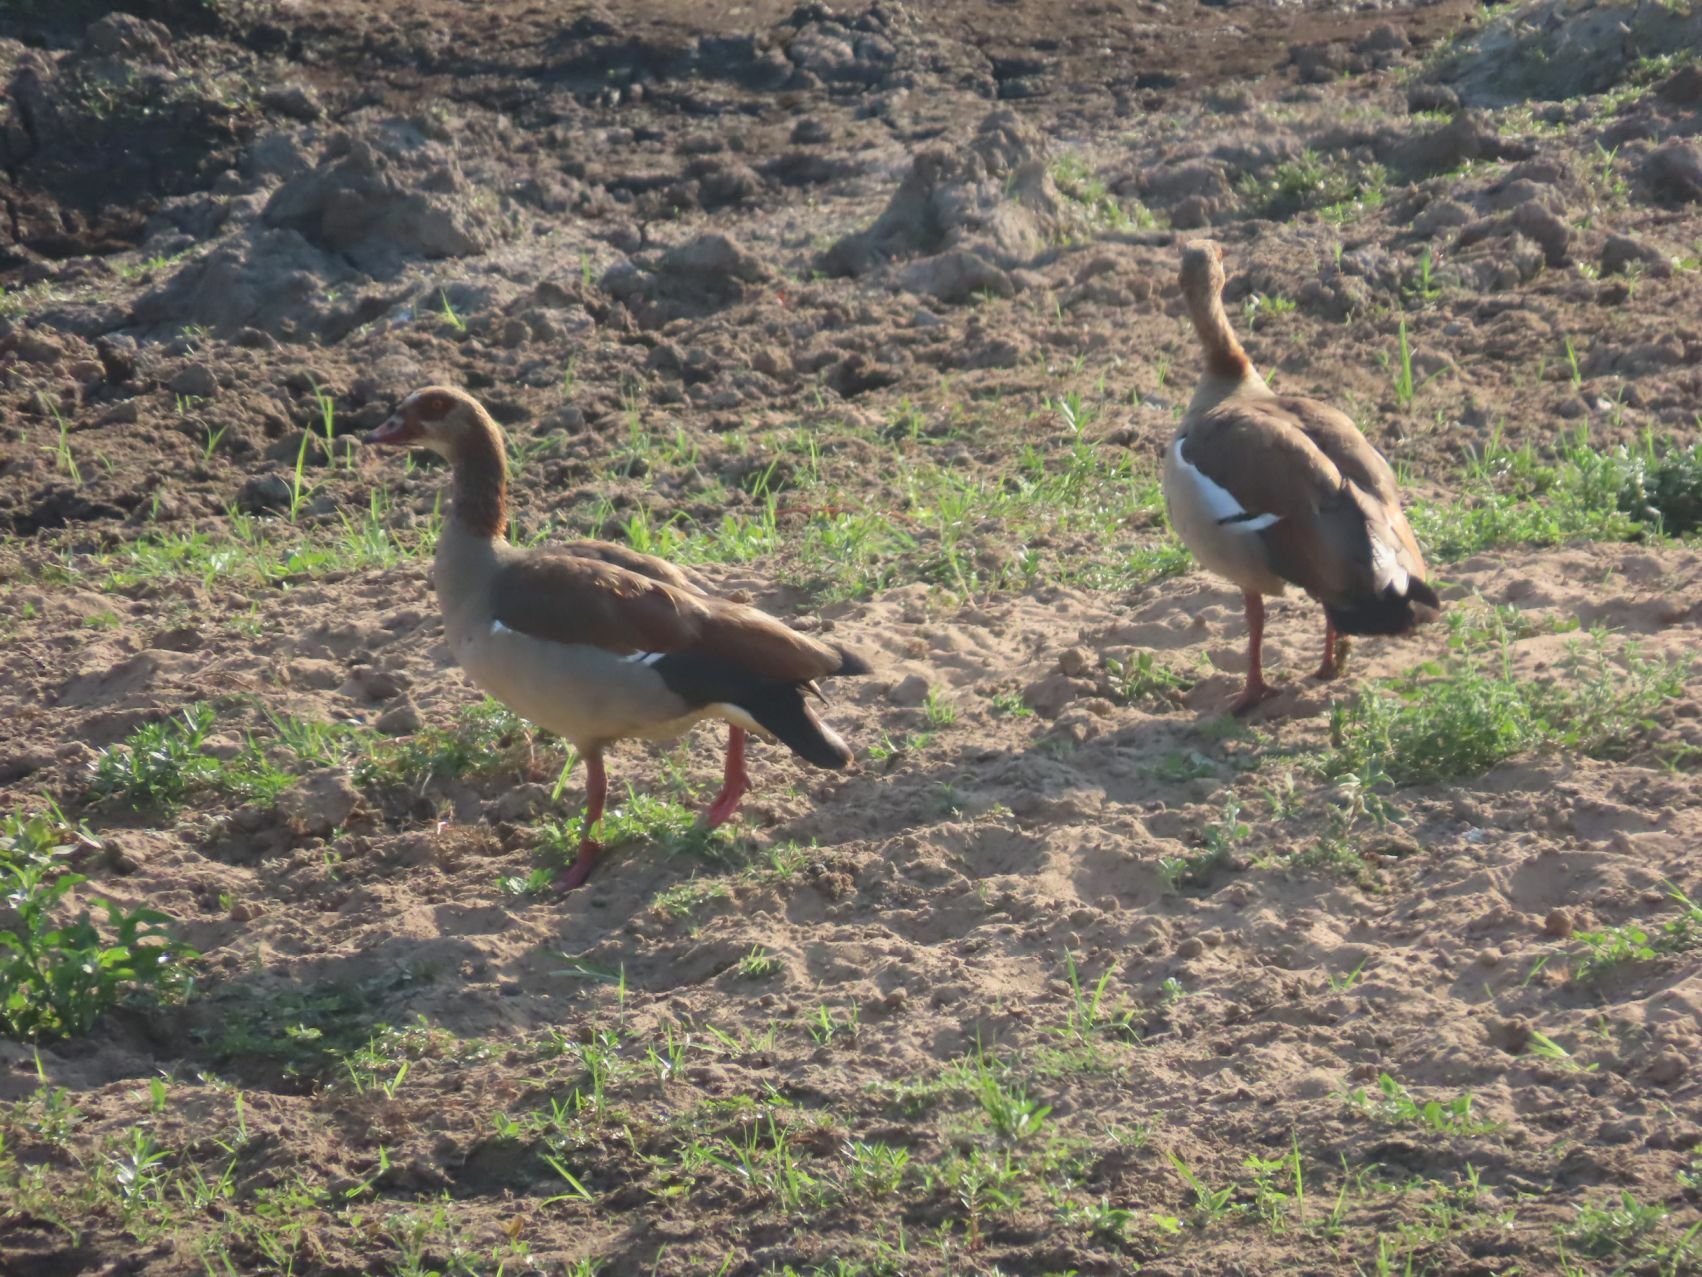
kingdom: Animalia
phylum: Chordata
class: Aves
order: Anseriformes
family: Anatidae
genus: Alopochen
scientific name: Alopochen aegyptiaca
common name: Egyptian goose
